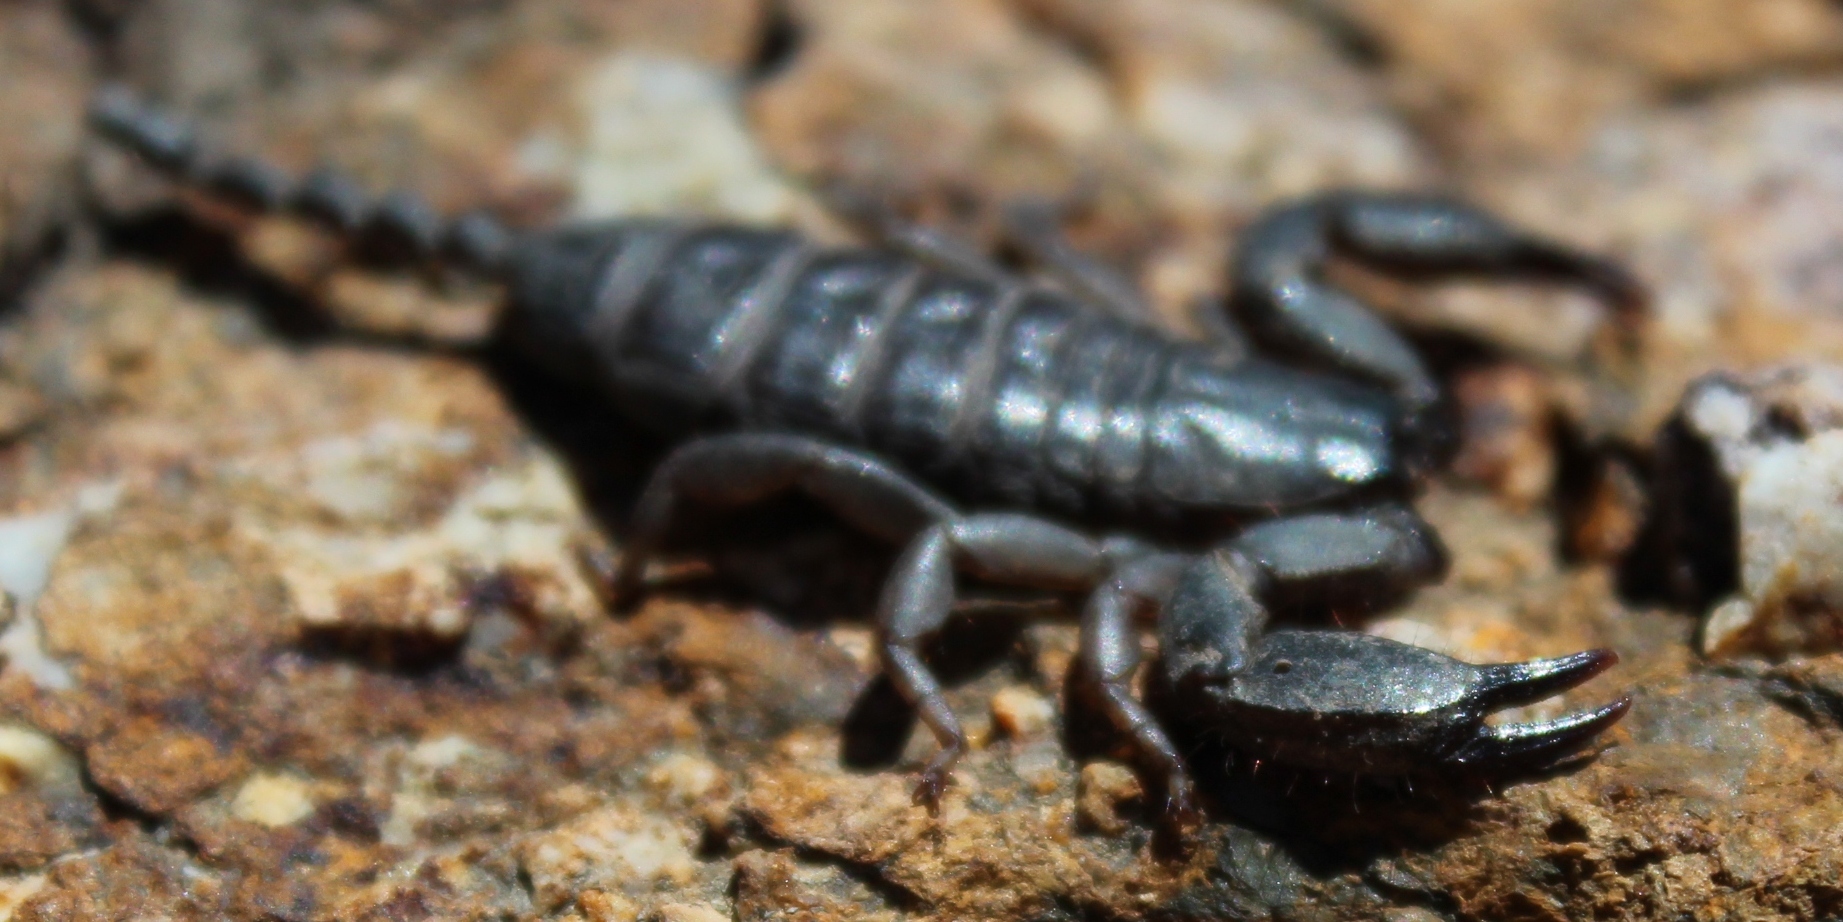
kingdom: Animalia
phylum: Arthropoda
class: Arachnida
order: Scorpiones
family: Hormuridae
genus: Opisthacanthus
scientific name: Opisthacanthus capensis
